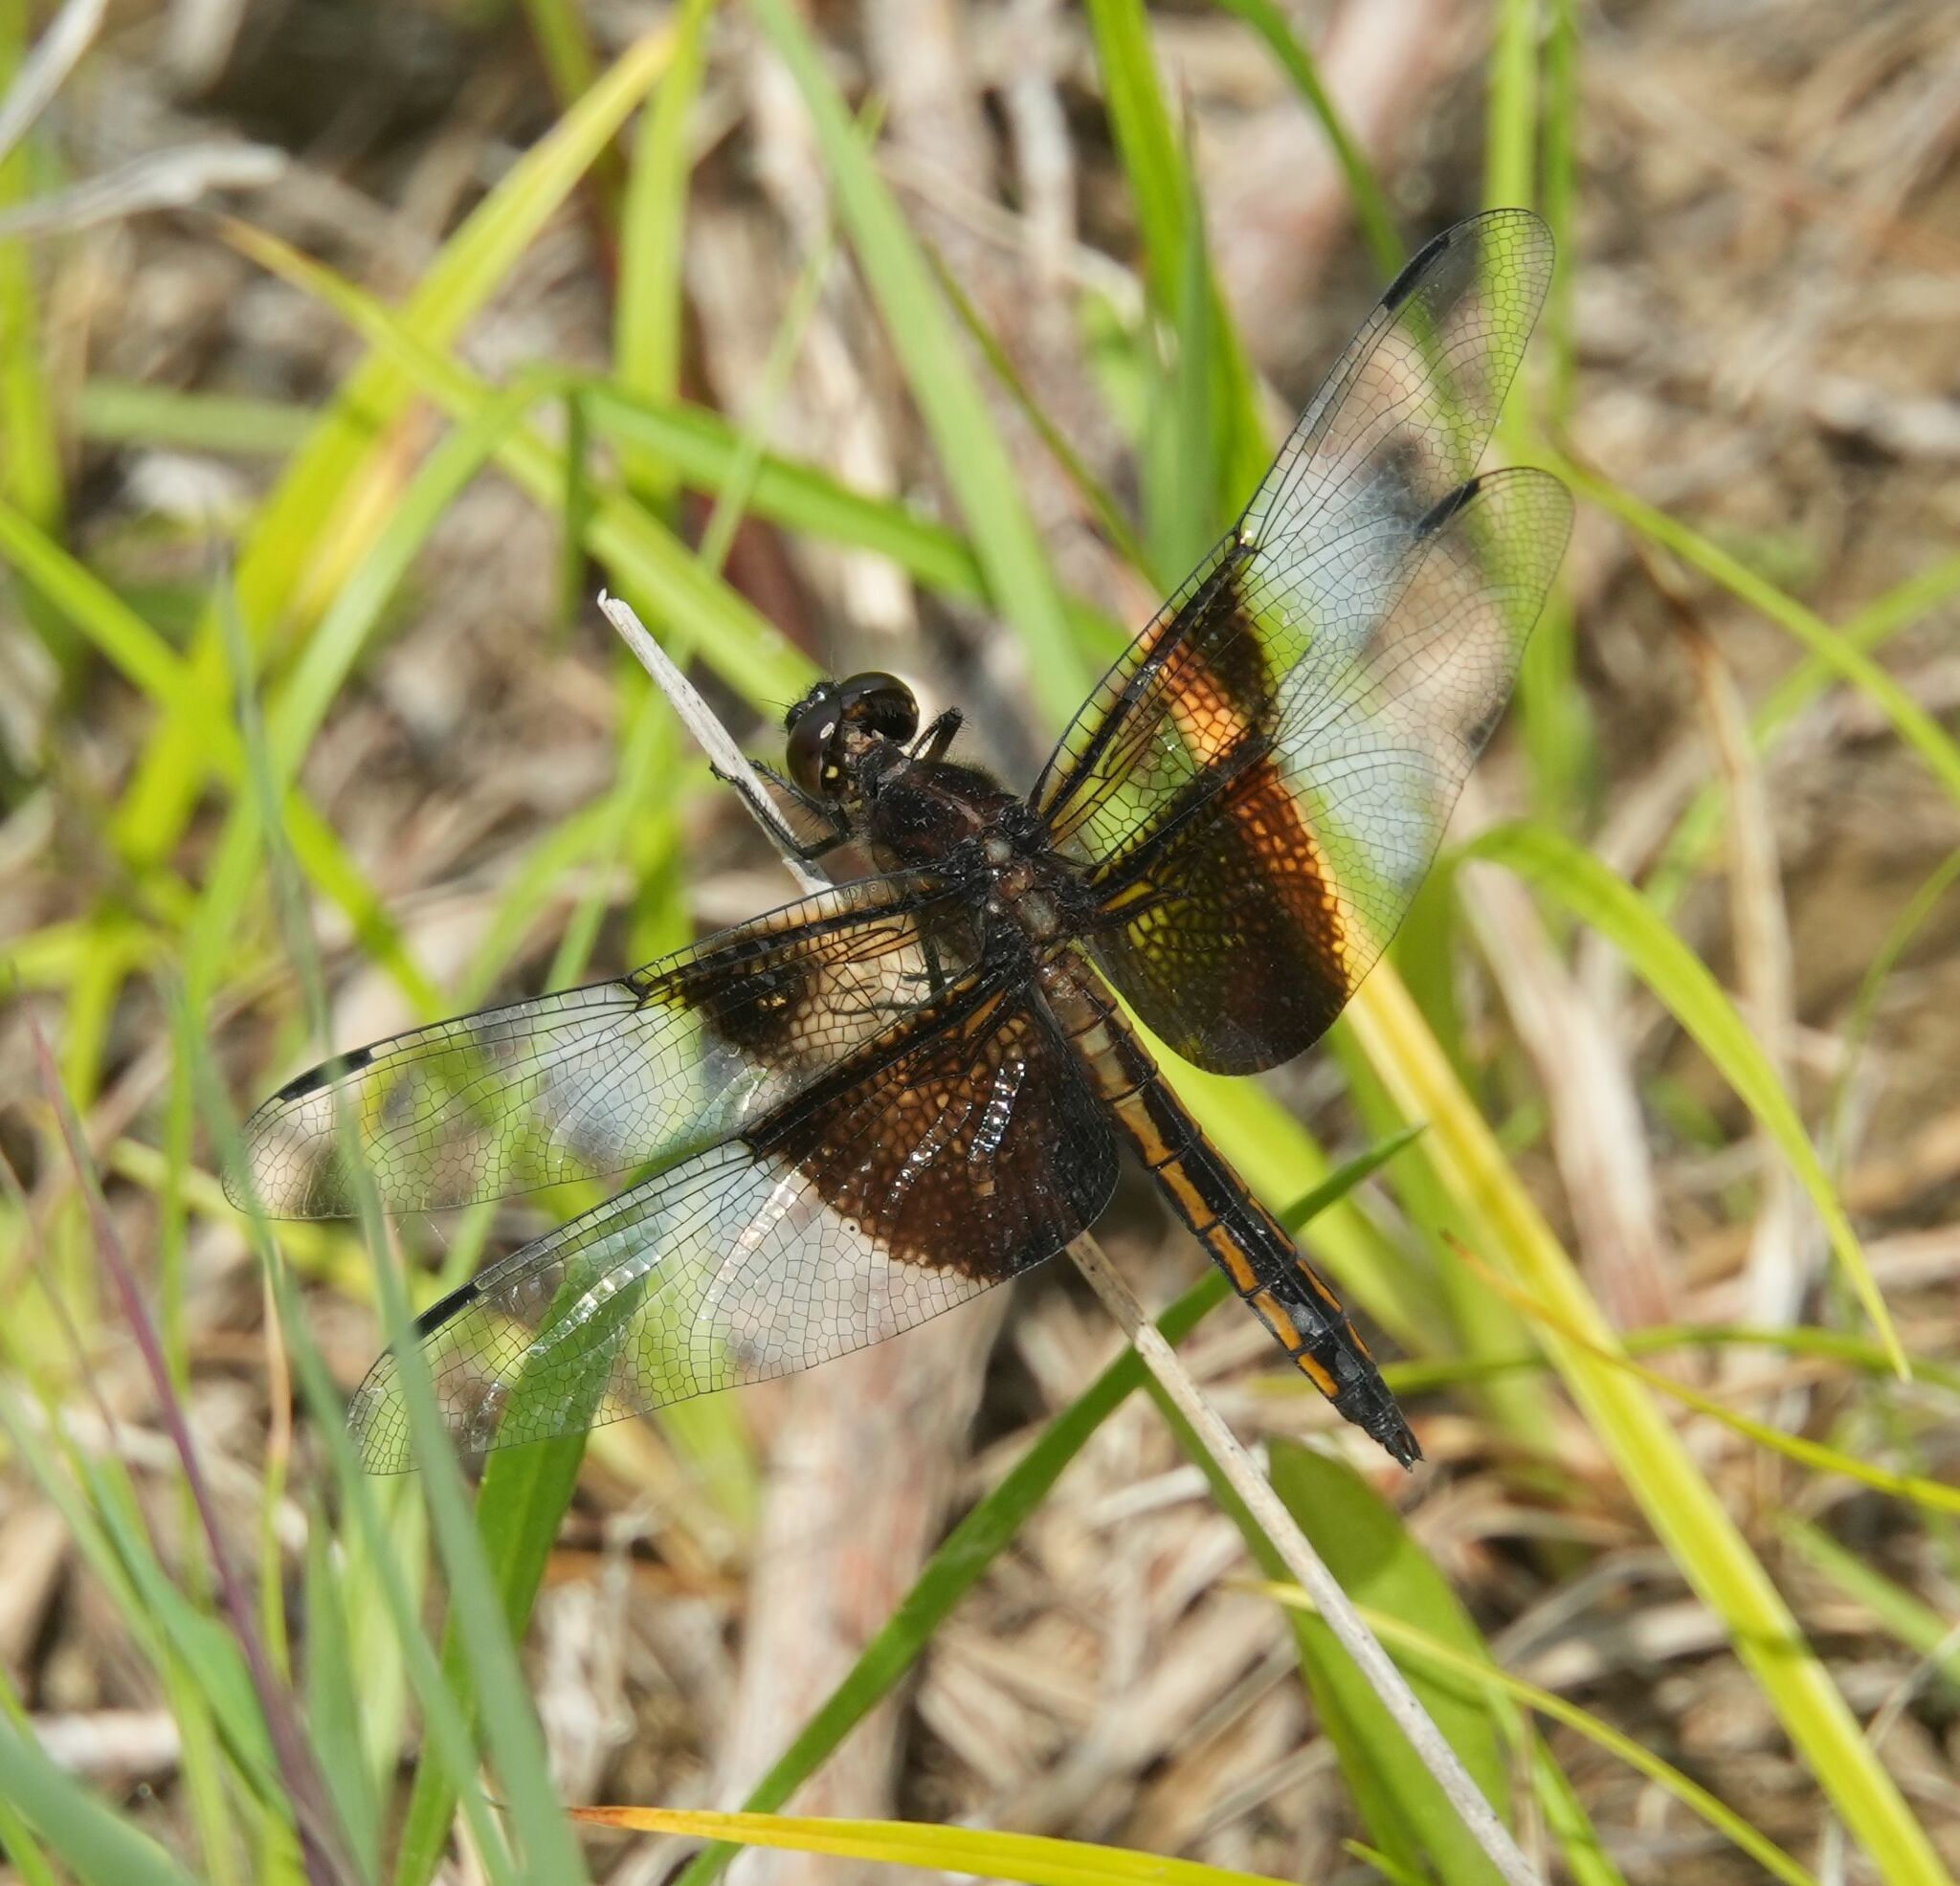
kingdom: Animalia
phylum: Arthropoda
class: Insecta
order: Odonata
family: Libellulidae
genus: Libellula
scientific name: Libellula luctuosa
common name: Widow skimmer
